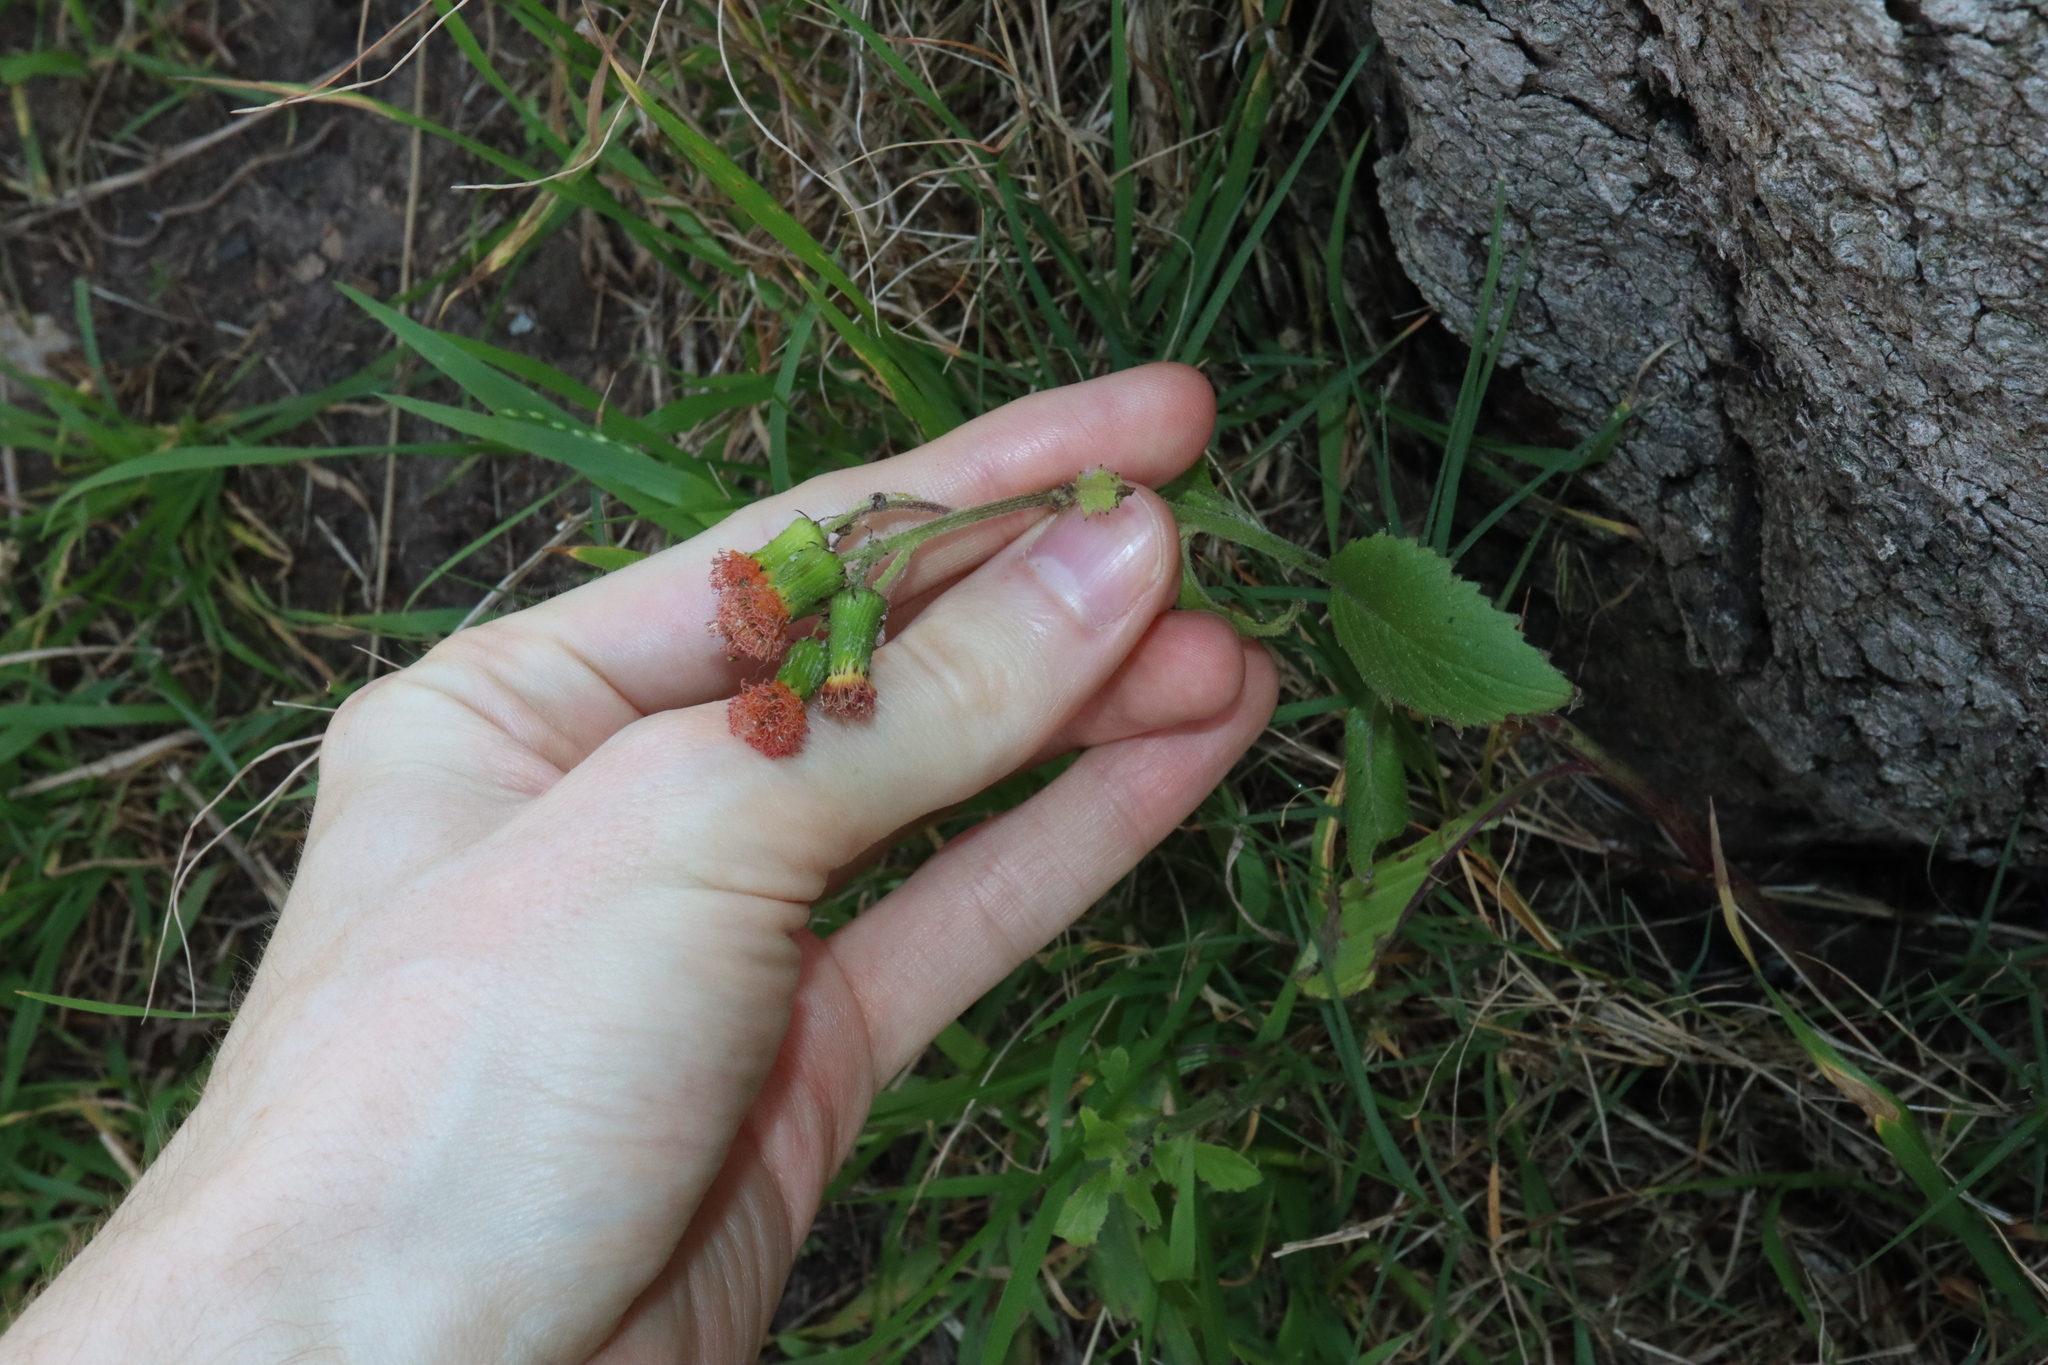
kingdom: Plantae
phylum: Tracheophyta
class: Magnoliopsida
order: Asterales
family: Asteraceae
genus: Crassocephalum
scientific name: Crassocephalum crepidioides
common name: Redflower ragleaf
